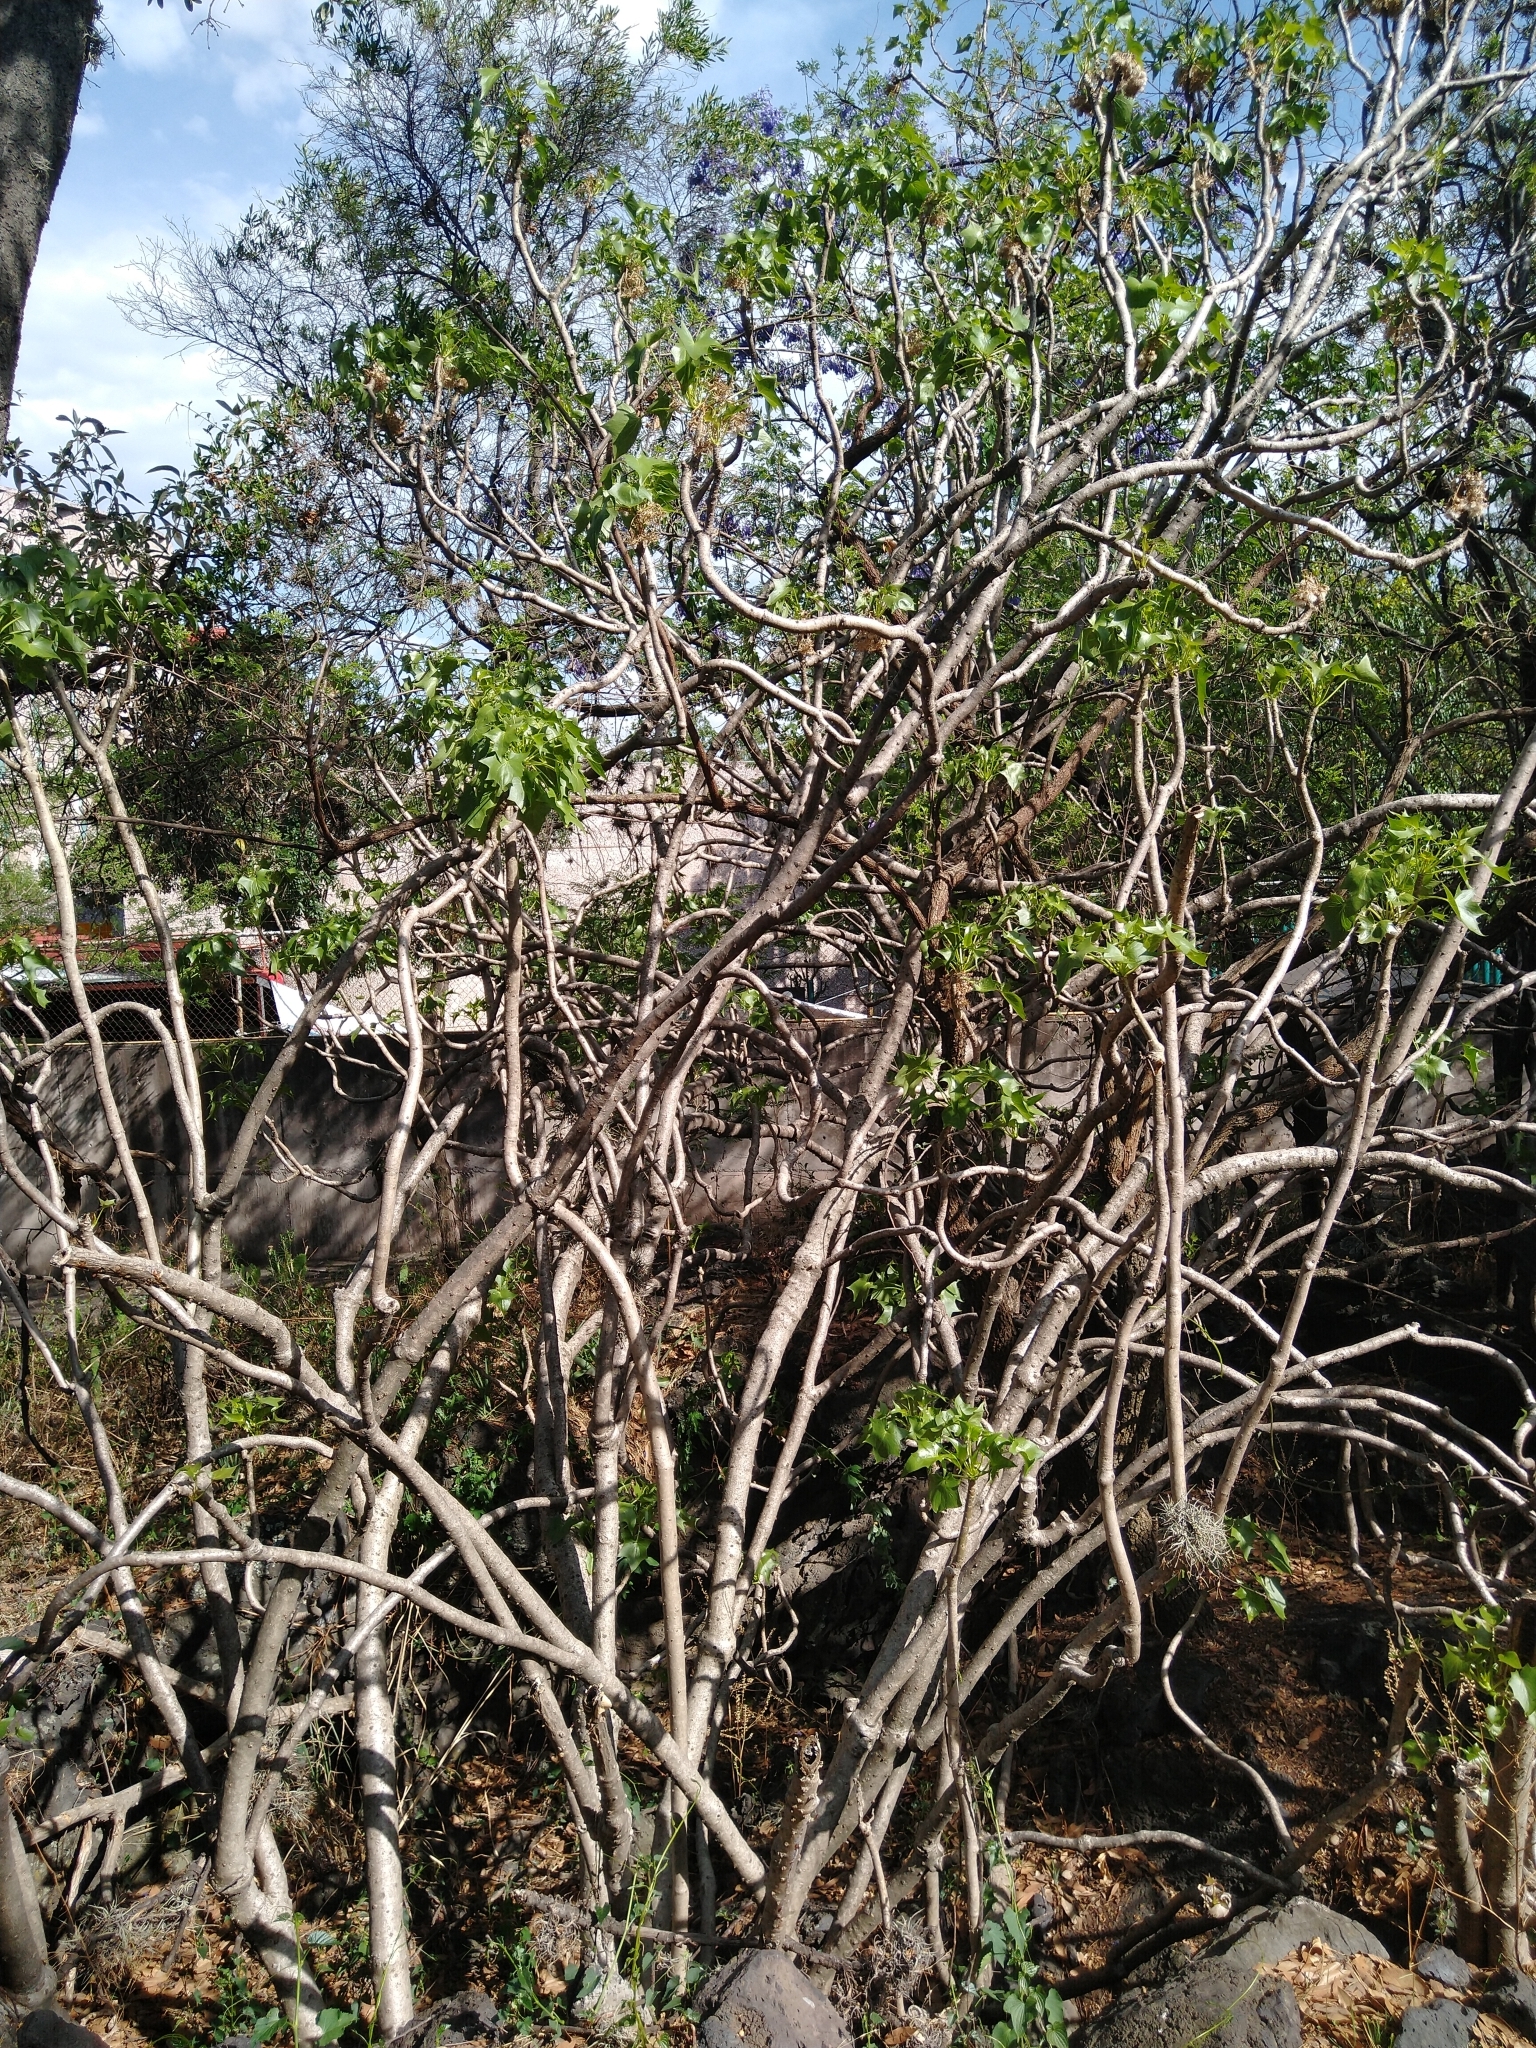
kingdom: Plantae
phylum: Tracheophyta
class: Magnoliopsida
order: Asterales
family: Asteraceae
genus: Pittocaulon
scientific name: Pittocaulon praecox
